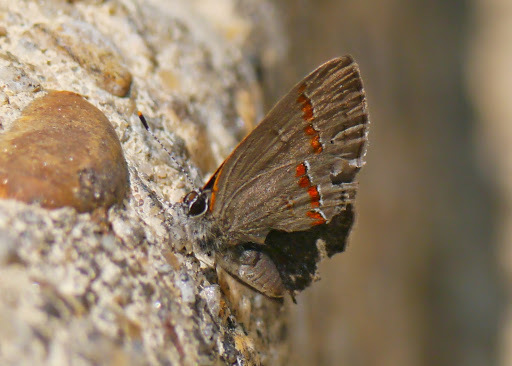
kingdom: Animalia
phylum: Arthropoda
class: Insecta
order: Lepidoptera
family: Lycaenidae
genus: Calycopis
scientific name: Calycopis cecrops
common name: Red-banded hairstreak
